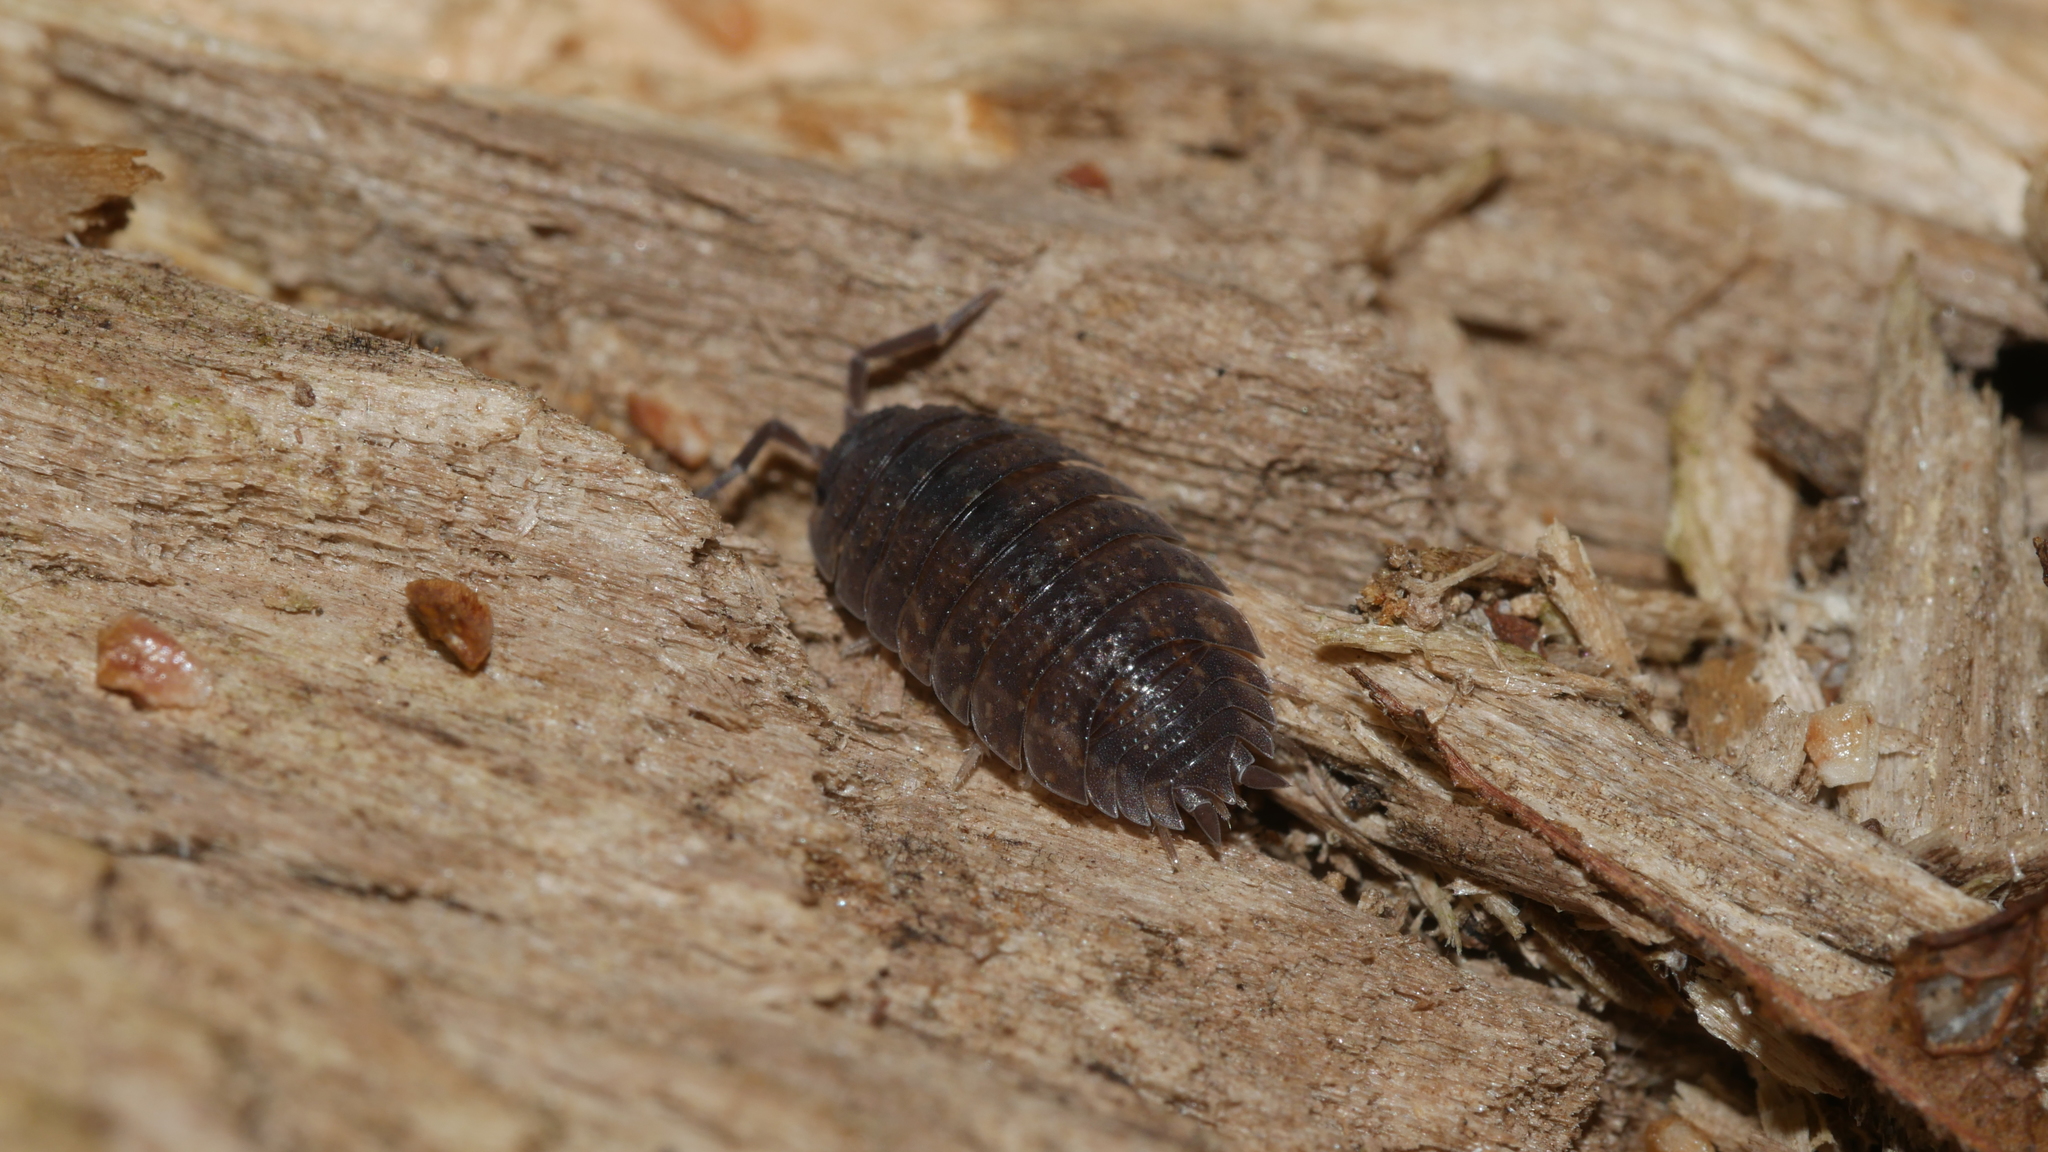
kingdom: Animalia
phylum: Arthropoda
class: Malacostraca
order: Isopoda
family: Porcellionidae
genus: Porcellio
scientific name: Porcellio scaber
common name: Common rough woodlouse
